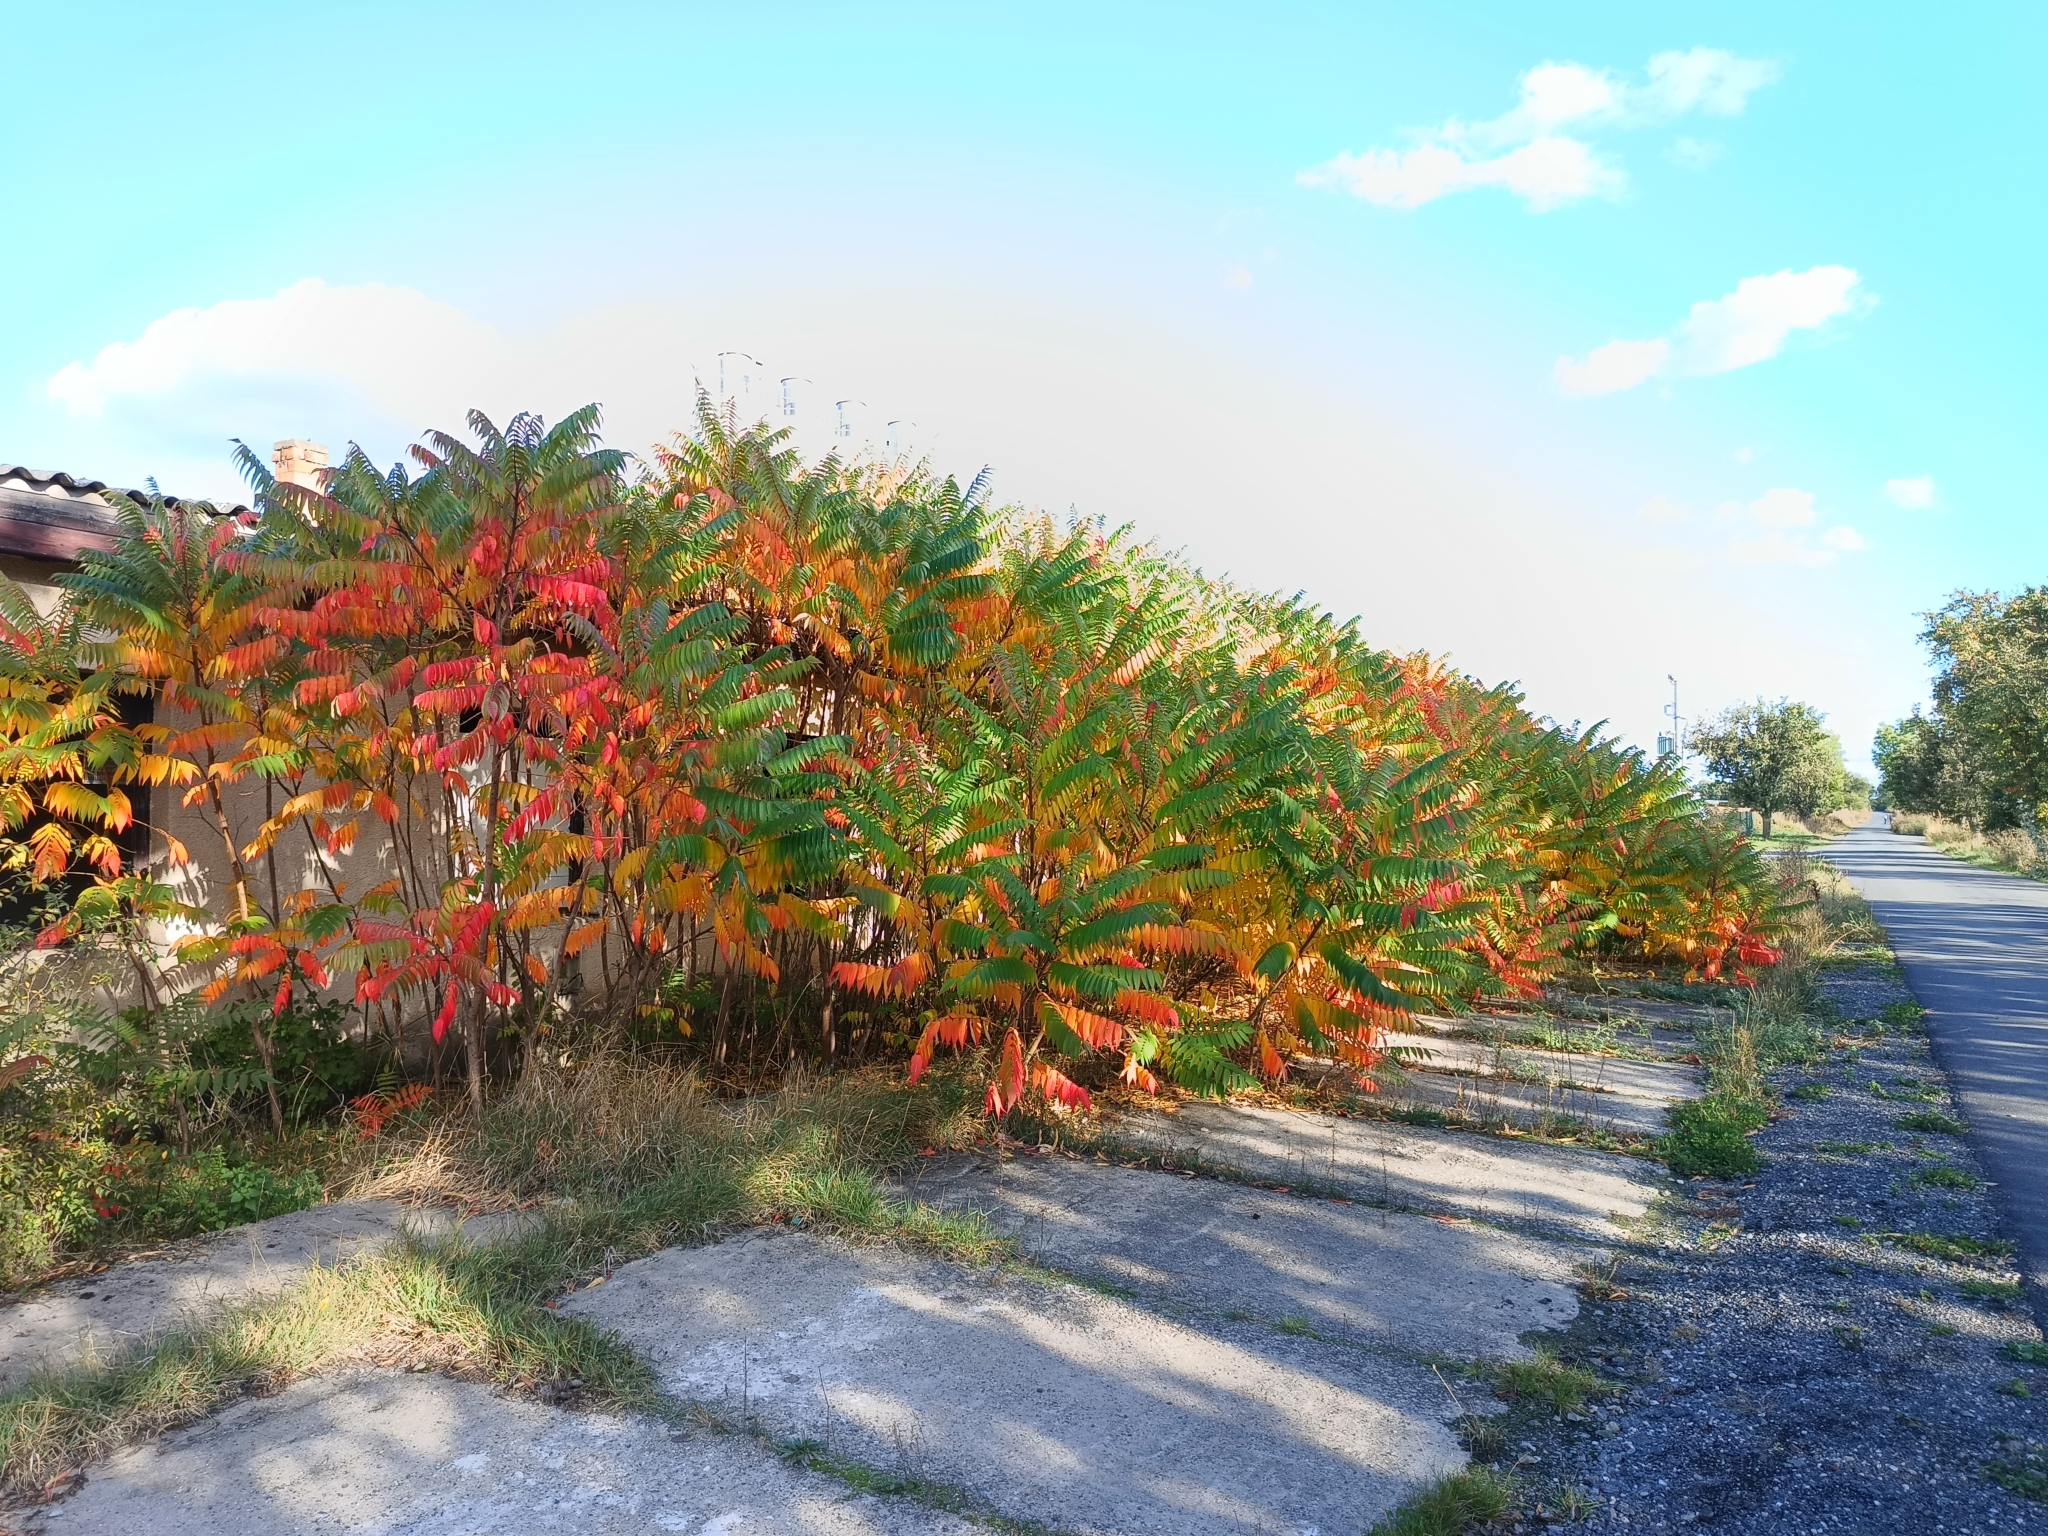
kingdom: Plantae
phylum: Tracheophyta
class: Magnoliopsida
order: Sapindales
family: Anacardiaceae
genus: Rhus
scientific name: Rhus typhina
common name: Staghorn sumac
